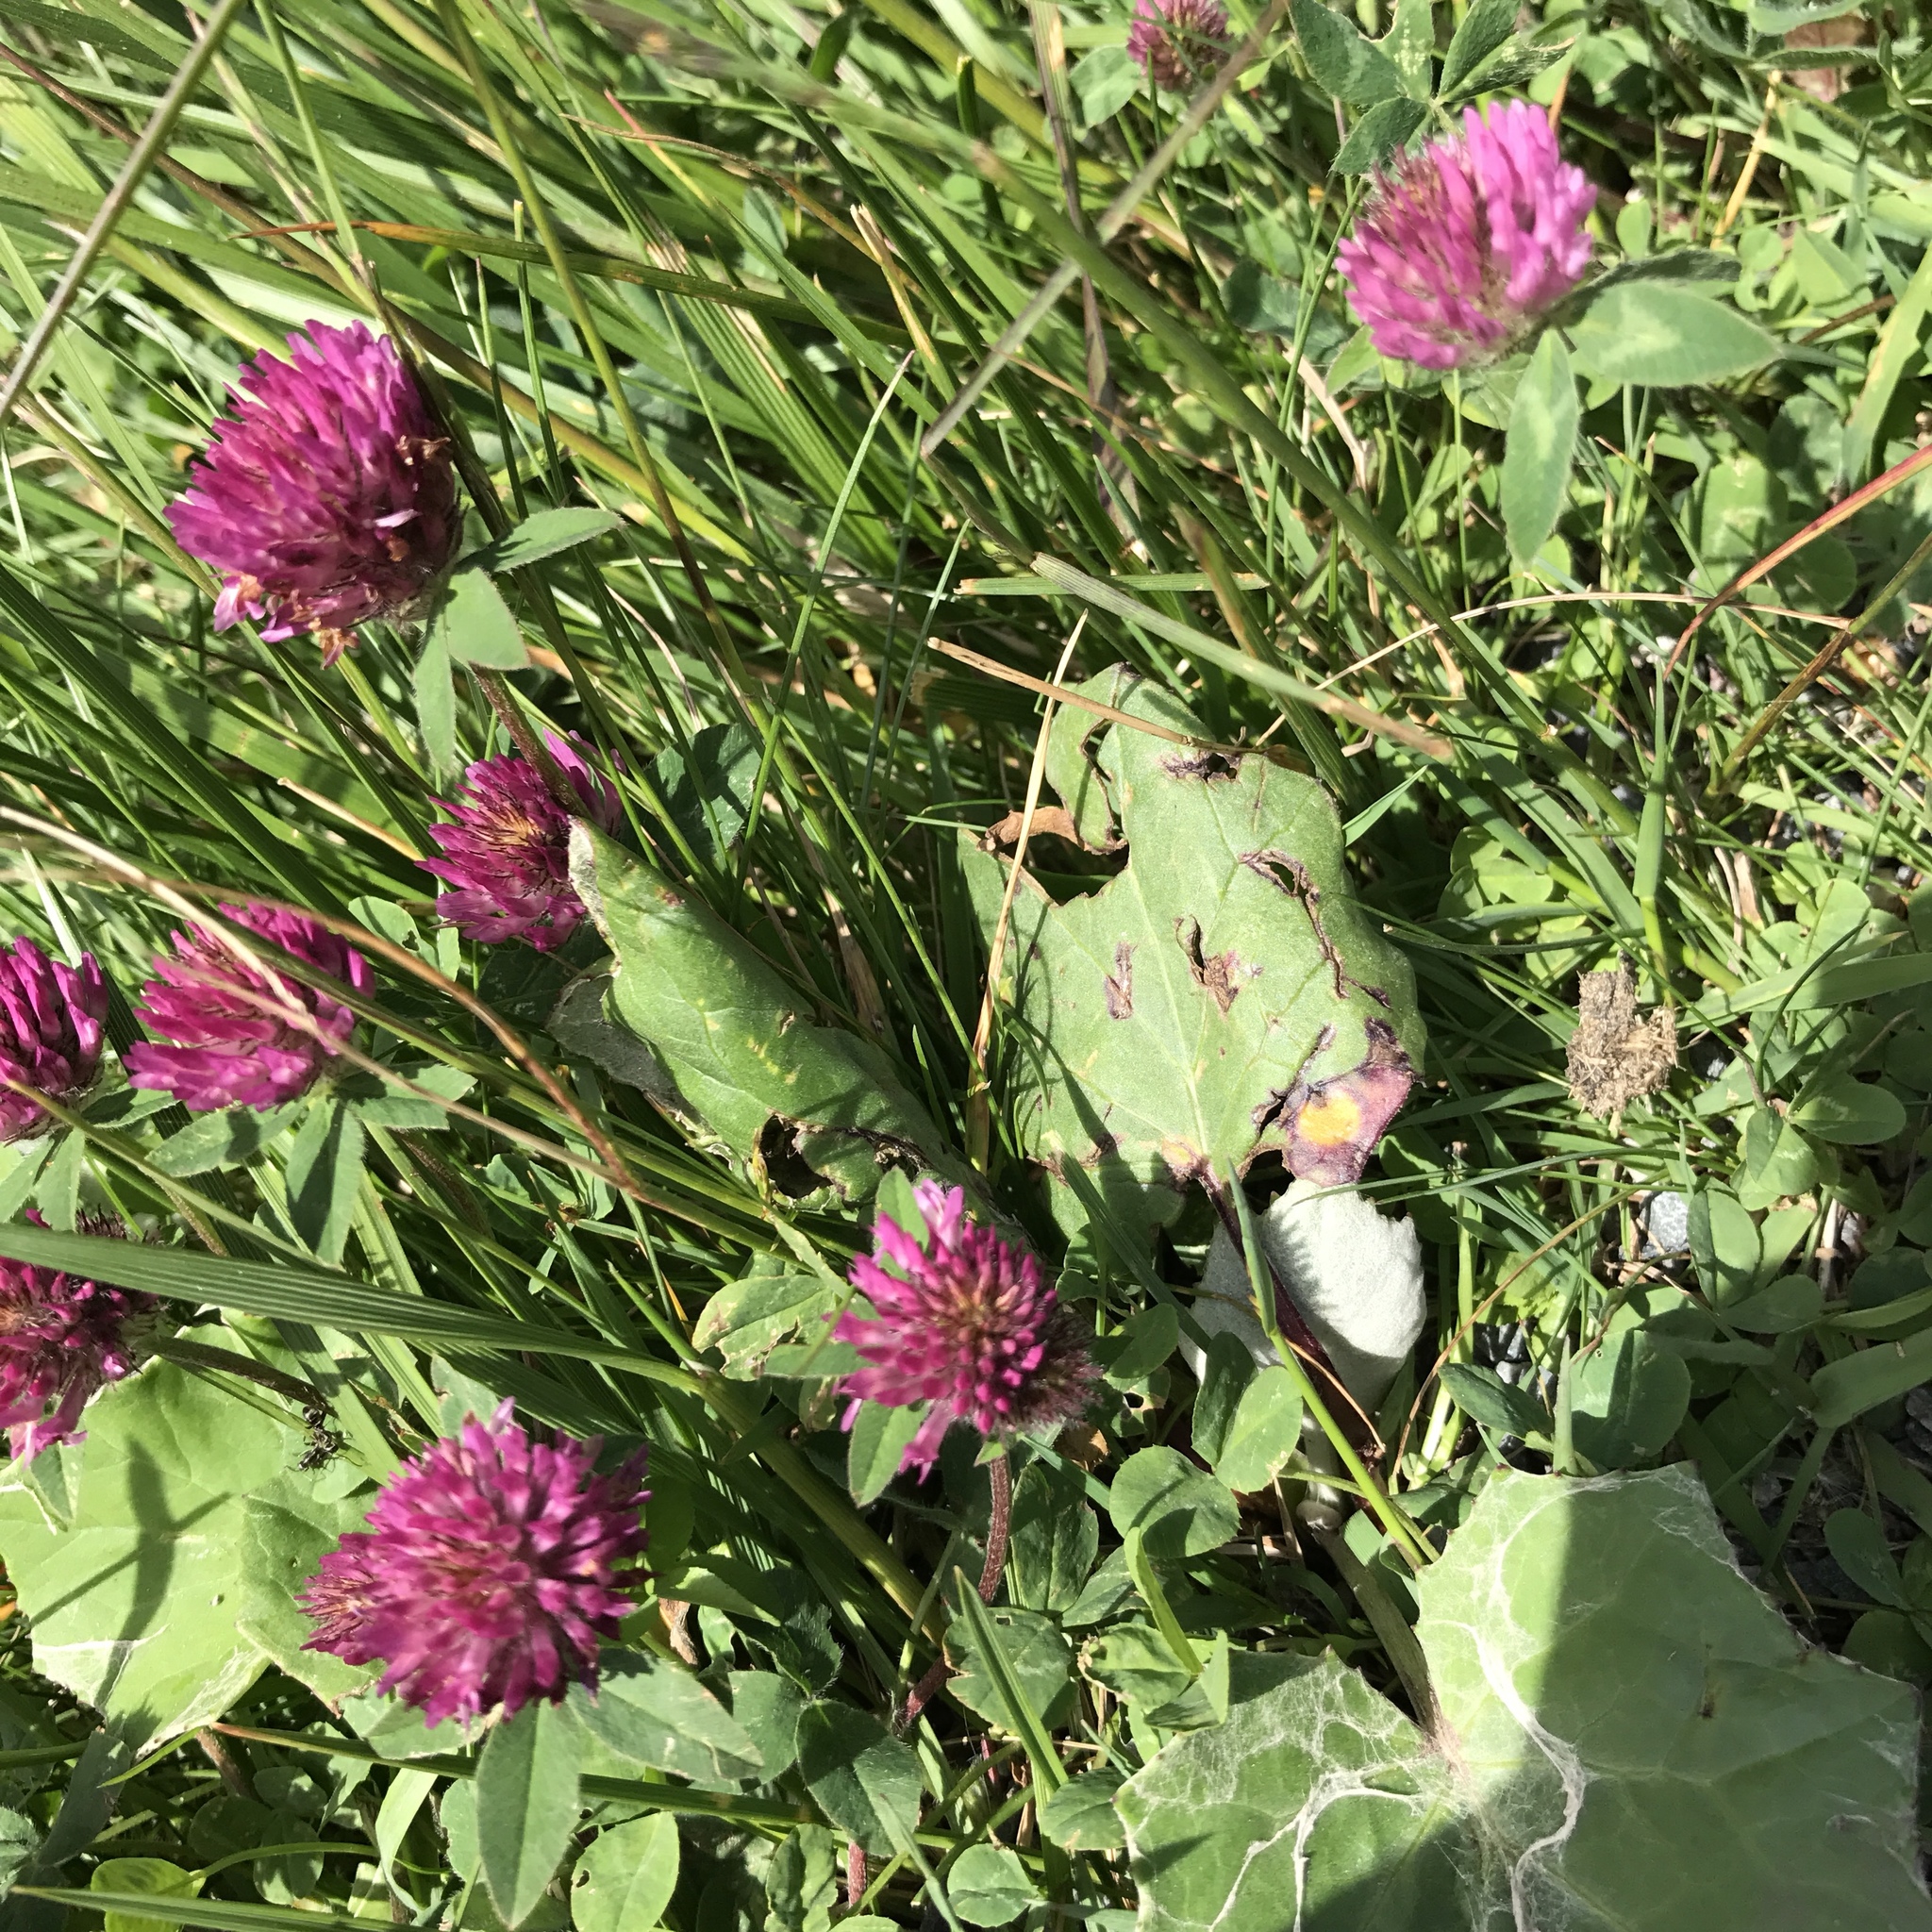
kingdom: Plantae
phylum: Tracheophyta
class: Magnoliopsida
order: Fabales
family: Fabaceae
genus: Trifolium
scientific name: Trifolium pratense
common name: Red clover
